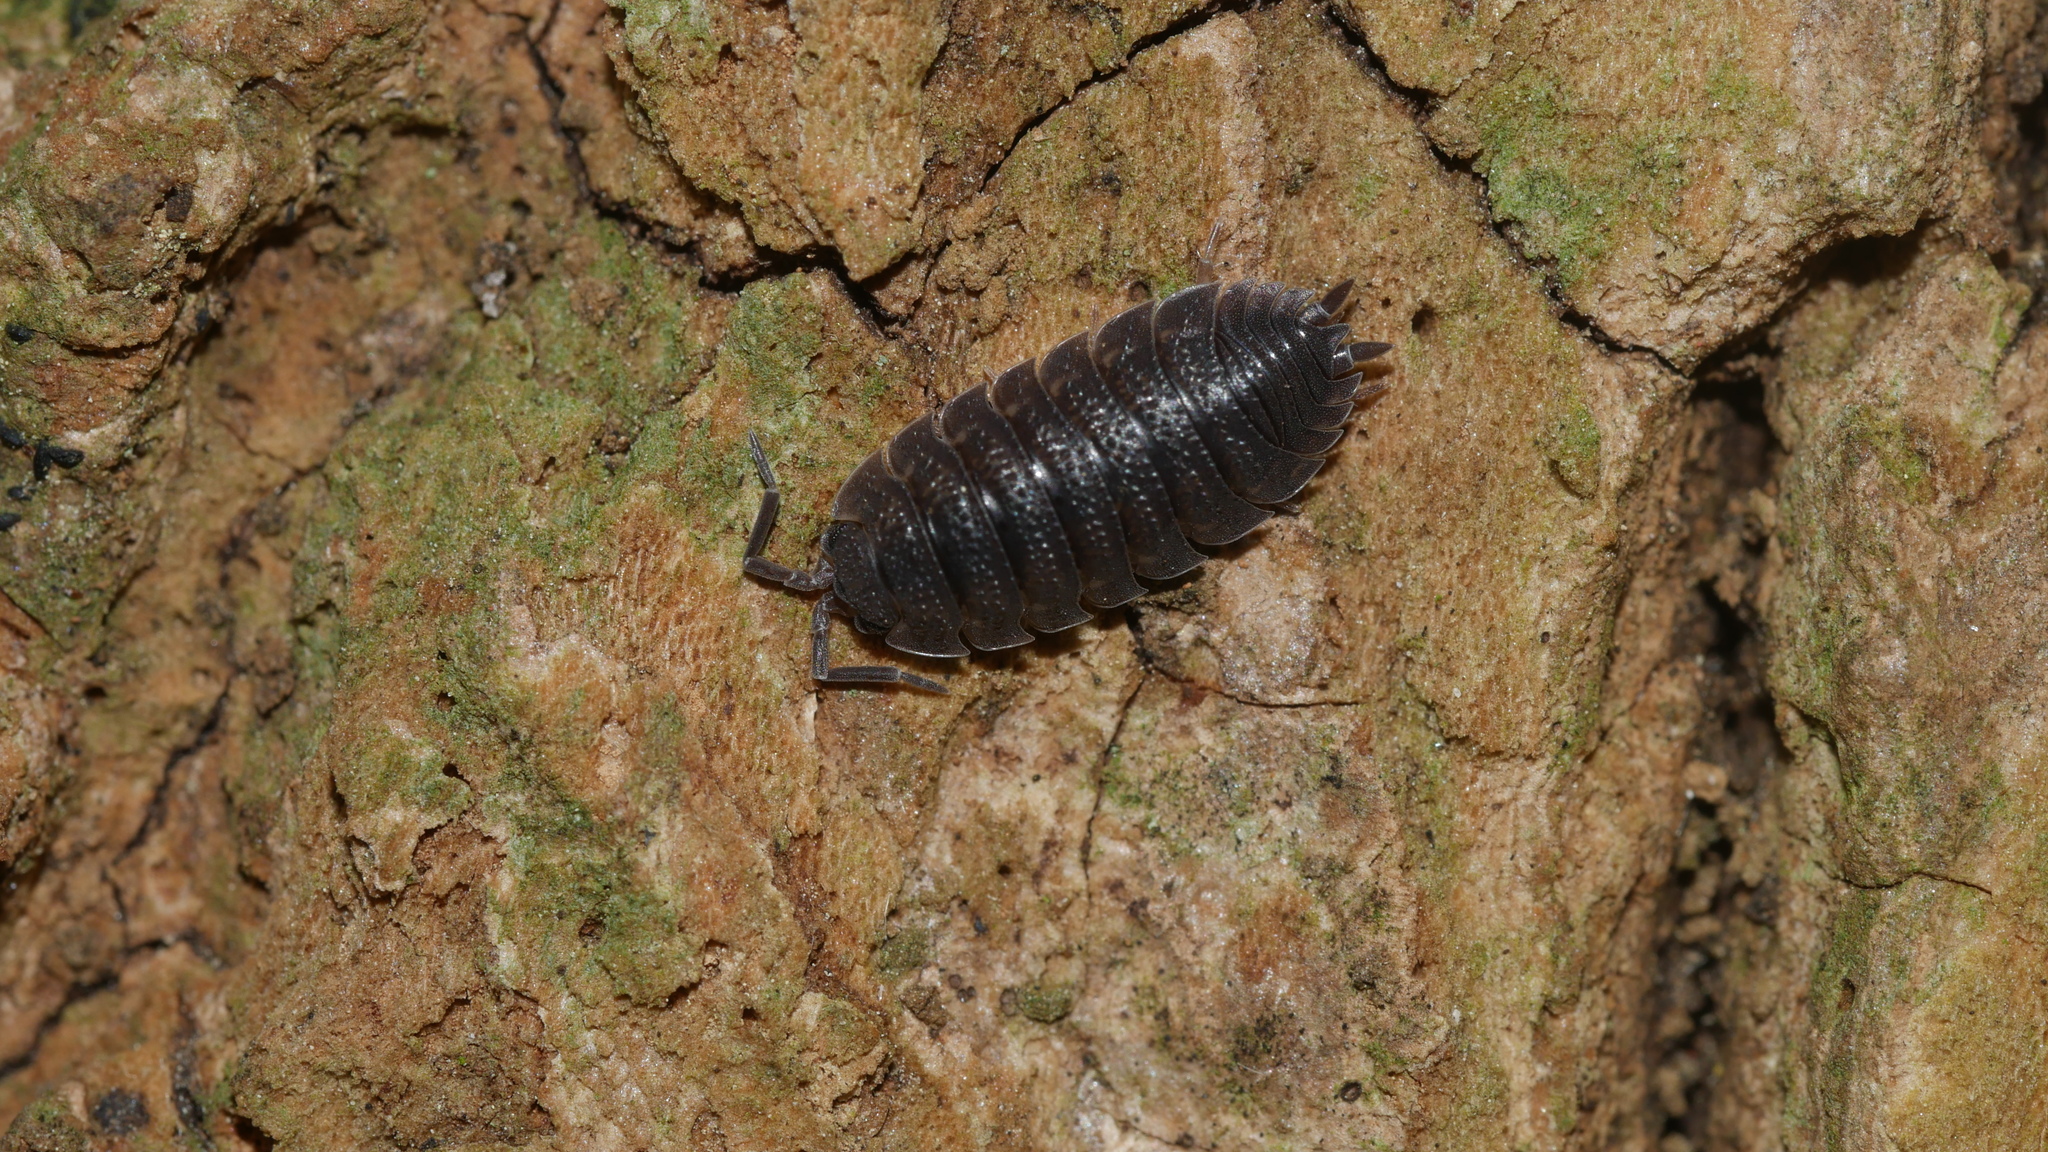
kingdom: Animalia
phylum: Arthropoda
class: Malacostraca
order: Isopoda
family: Porcellionidae
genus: Porcellio
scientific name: Porcellio scaber
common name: Common rough woodlouse
